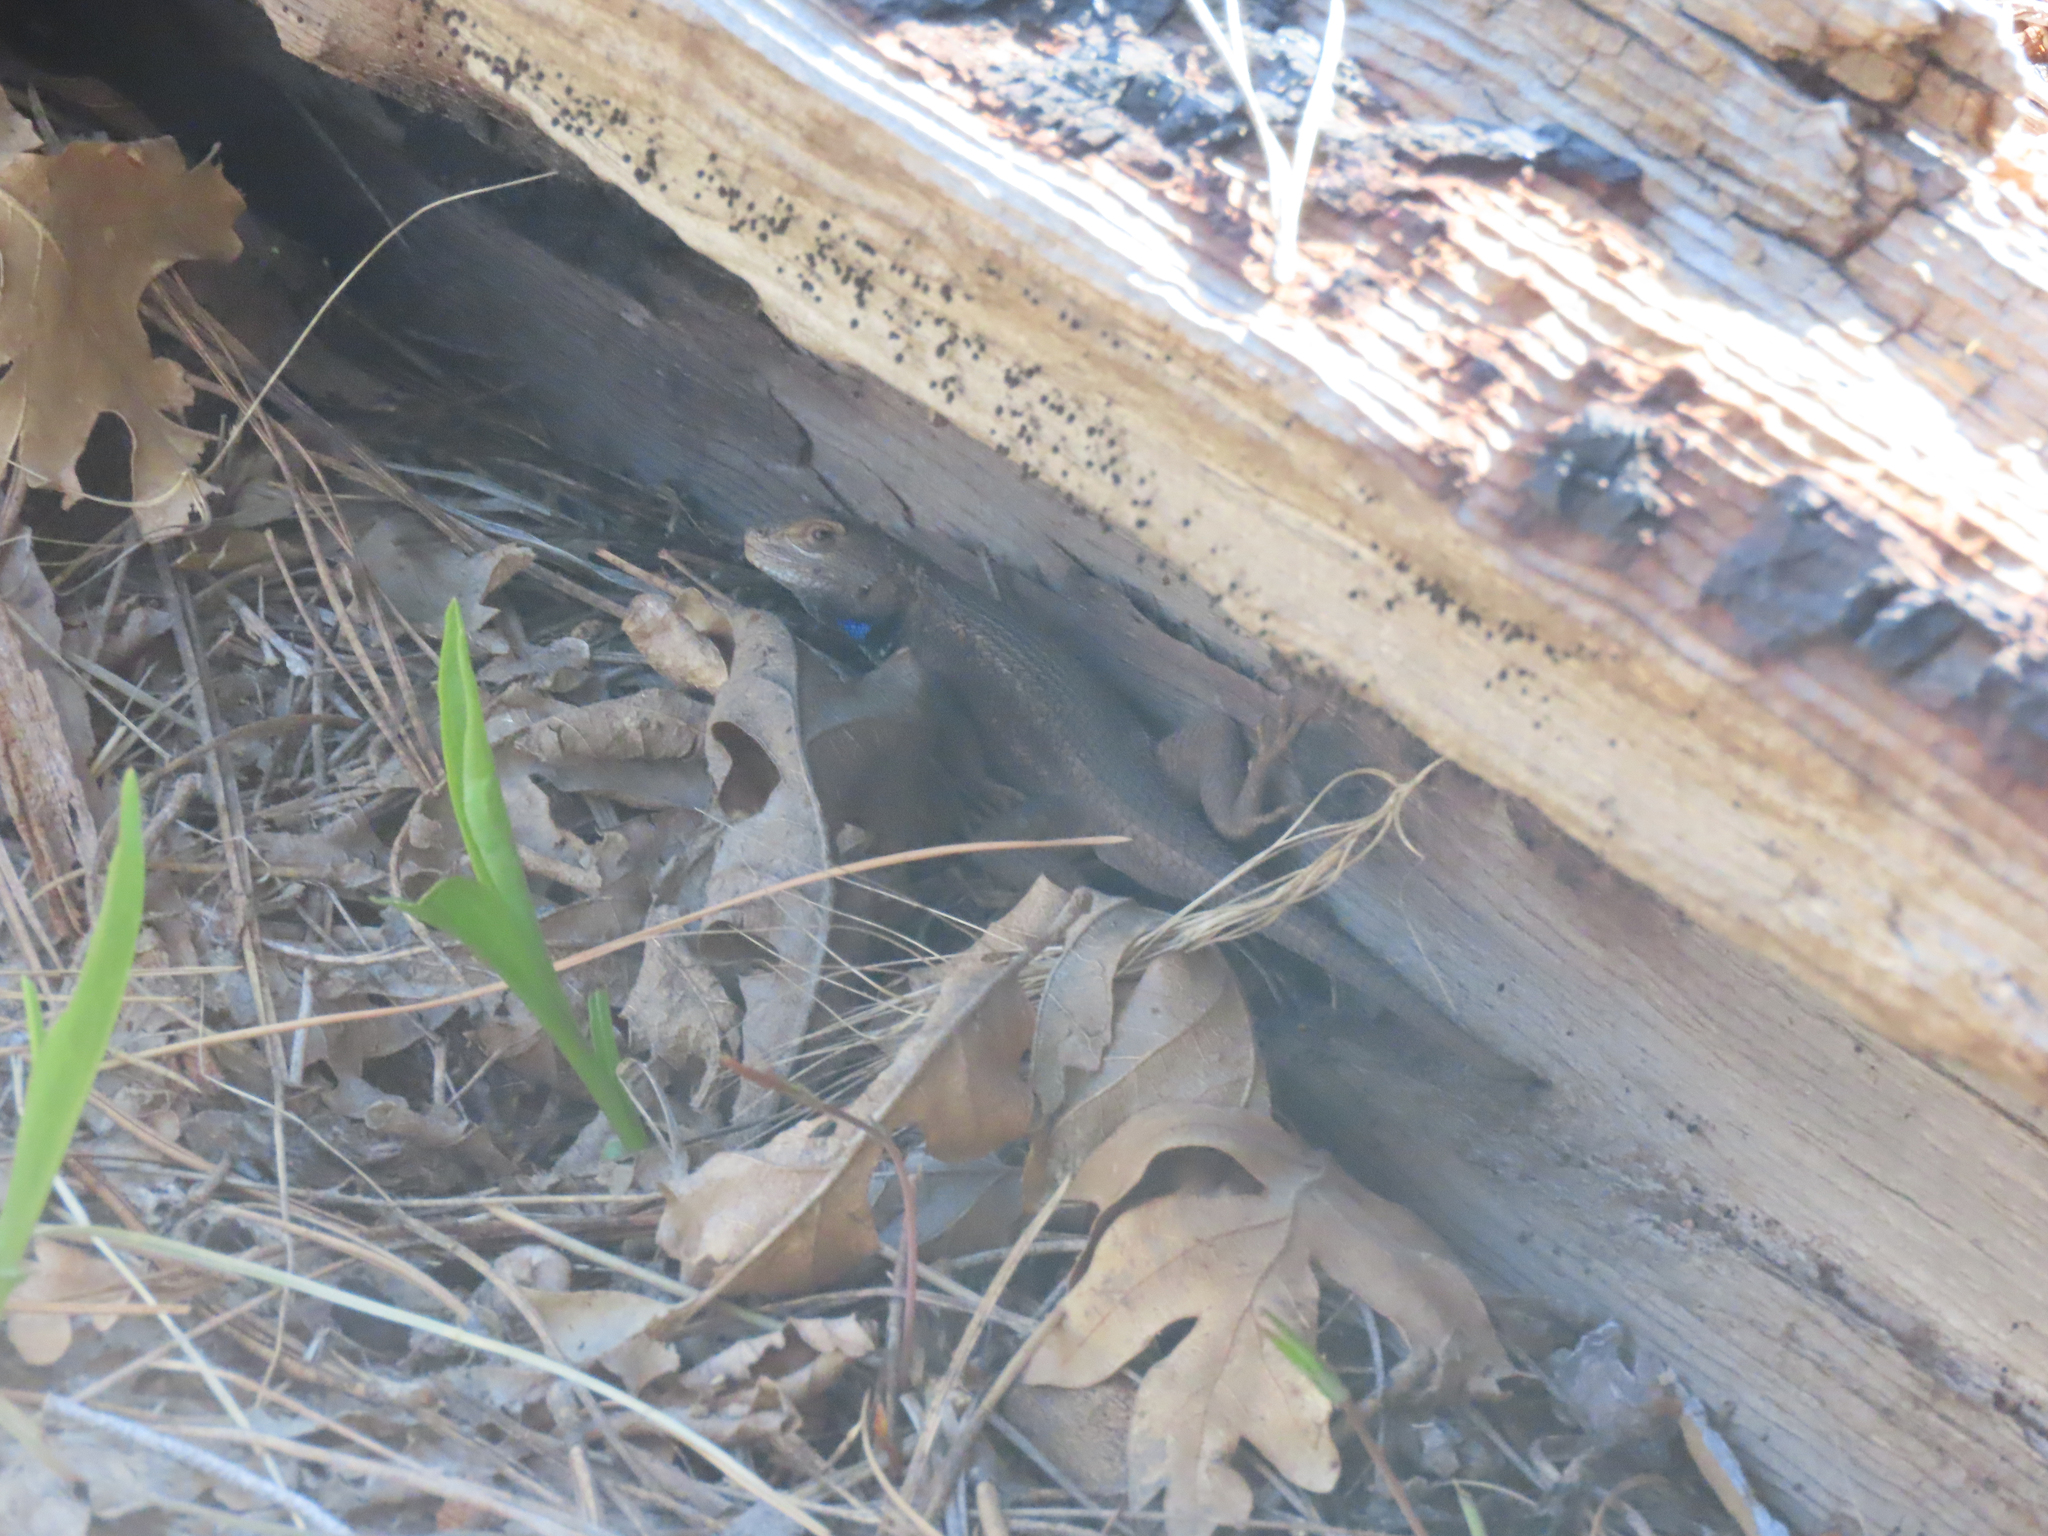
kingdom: Animalia
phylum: Chordata
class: Squamata
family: Phrynosomatidae
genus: Sceloporus
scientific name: Sceloporus tristichus
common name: Plateau fence lizard
